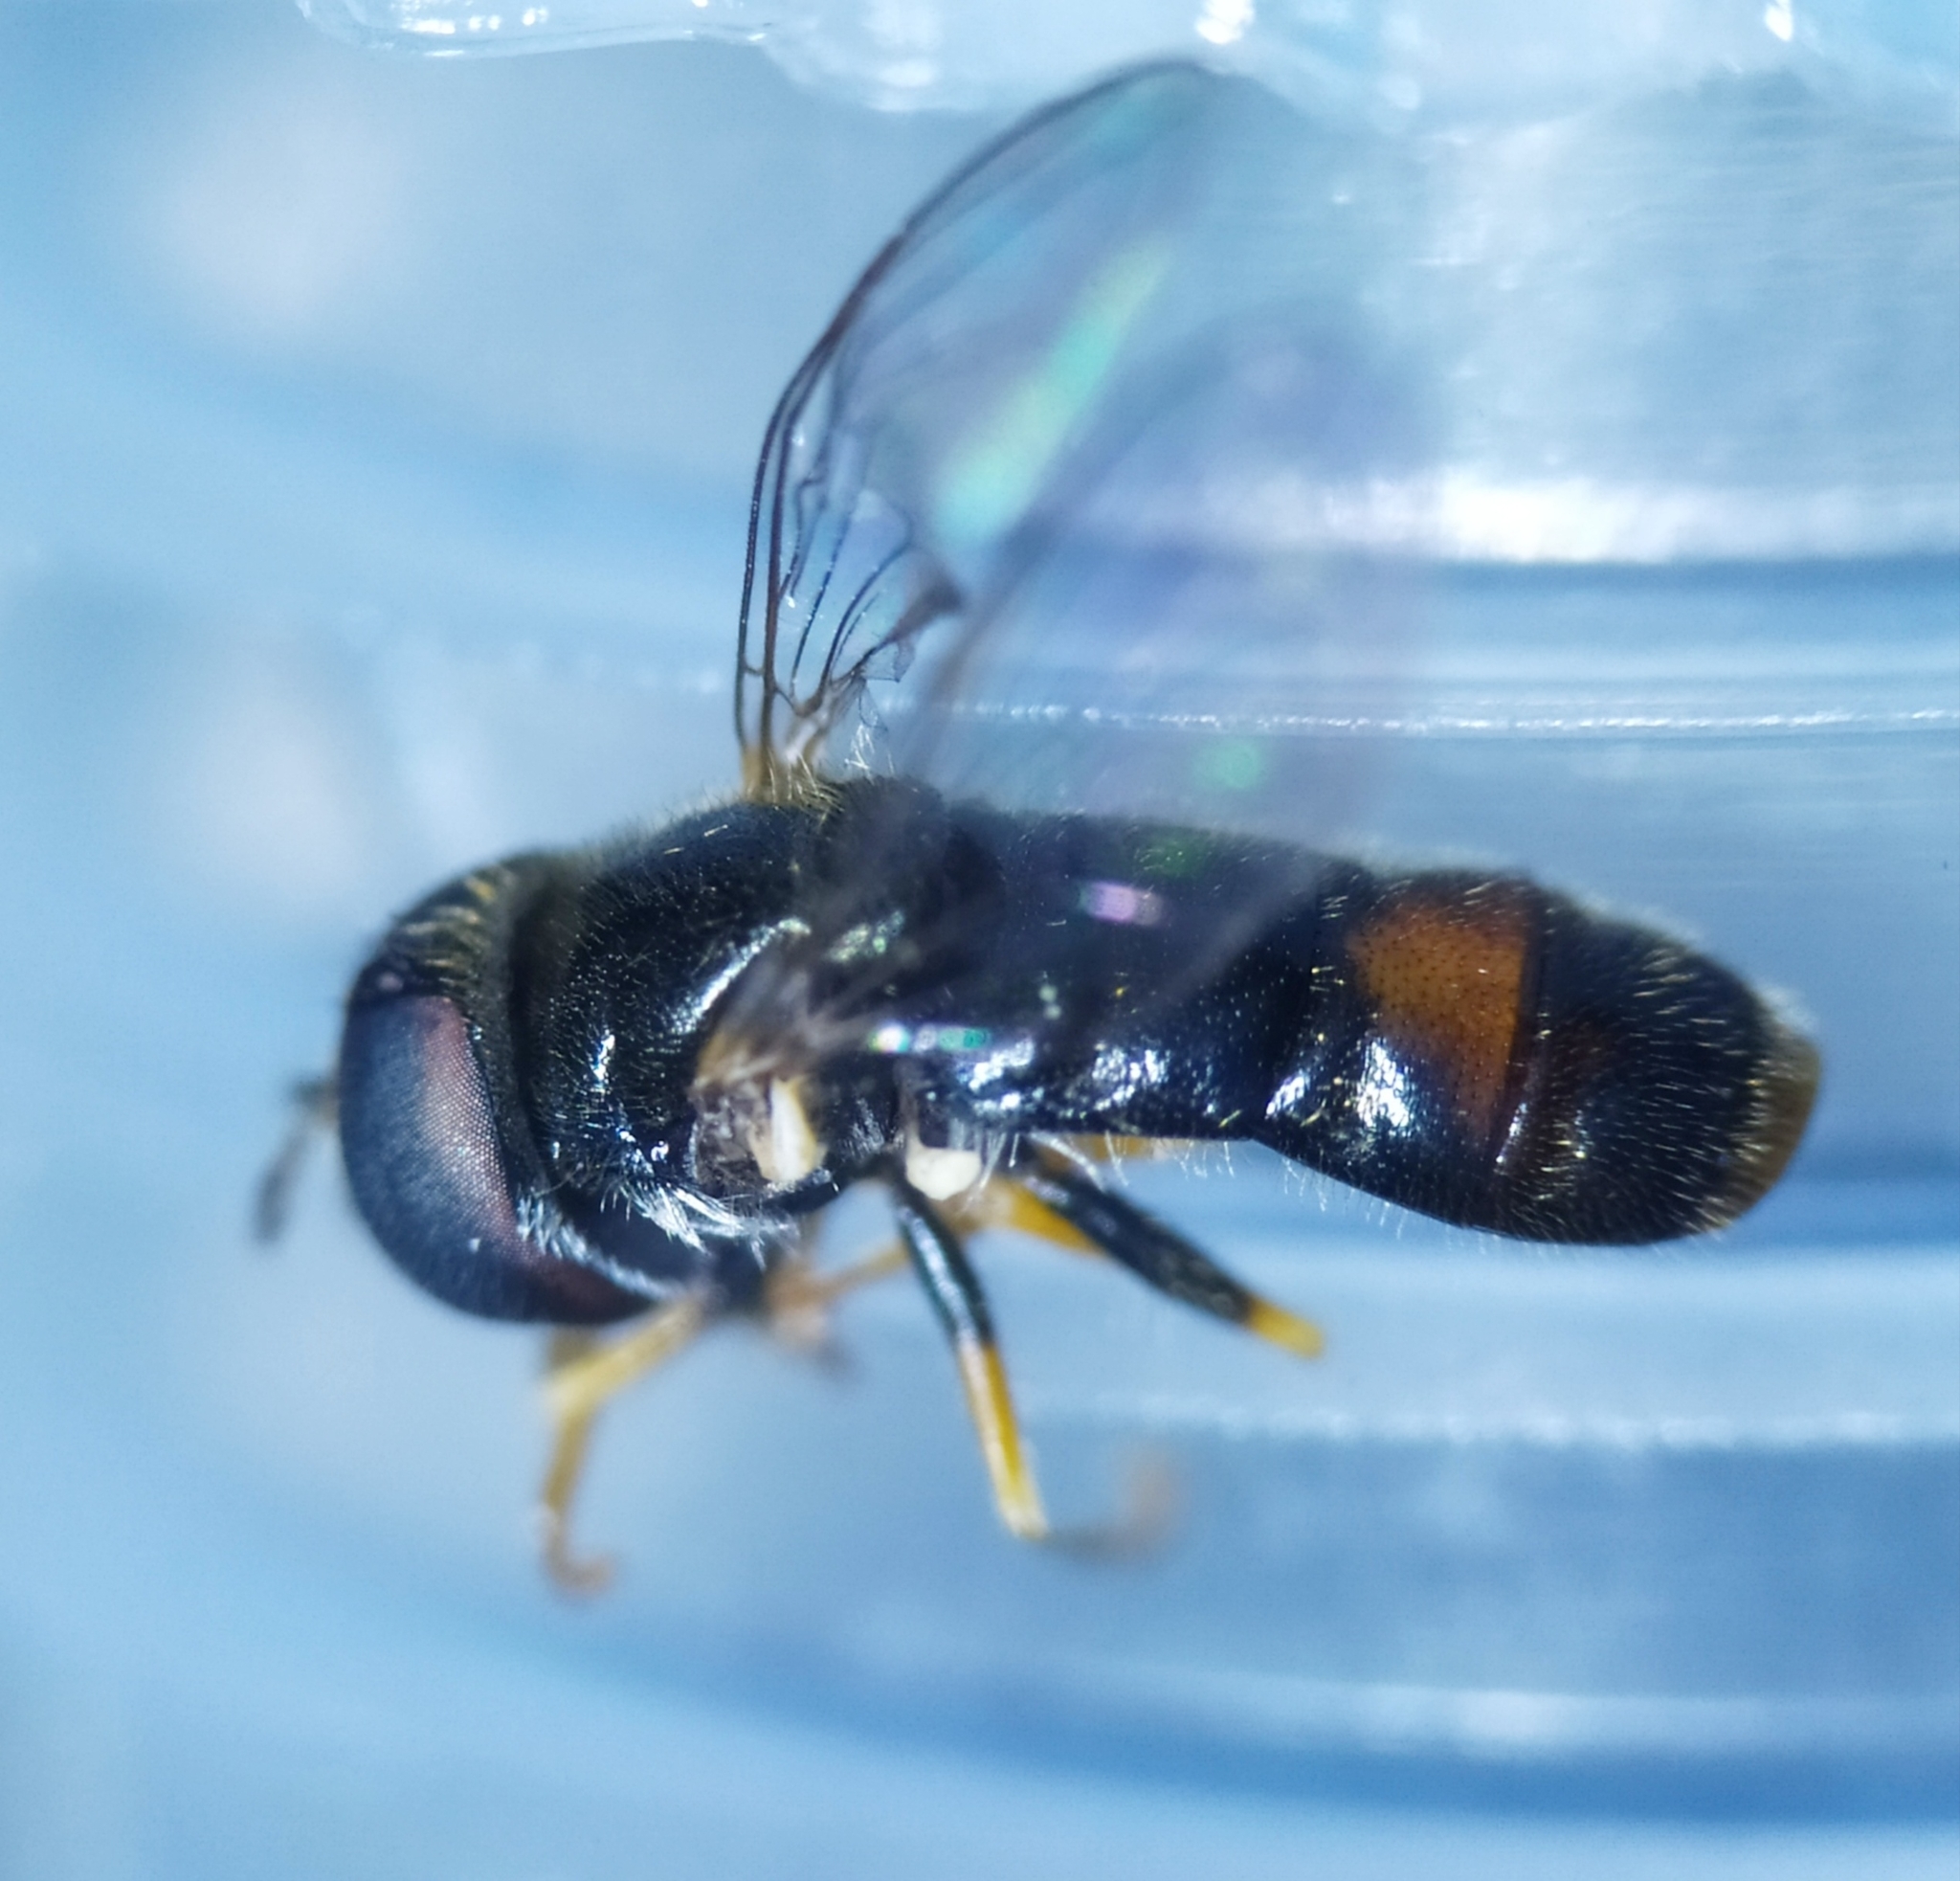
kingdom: Animalia
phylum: Arthropoda
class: Insecta
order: Diptera
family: Syrphidae
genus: Paragus
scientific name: Paragus haemorrhous
